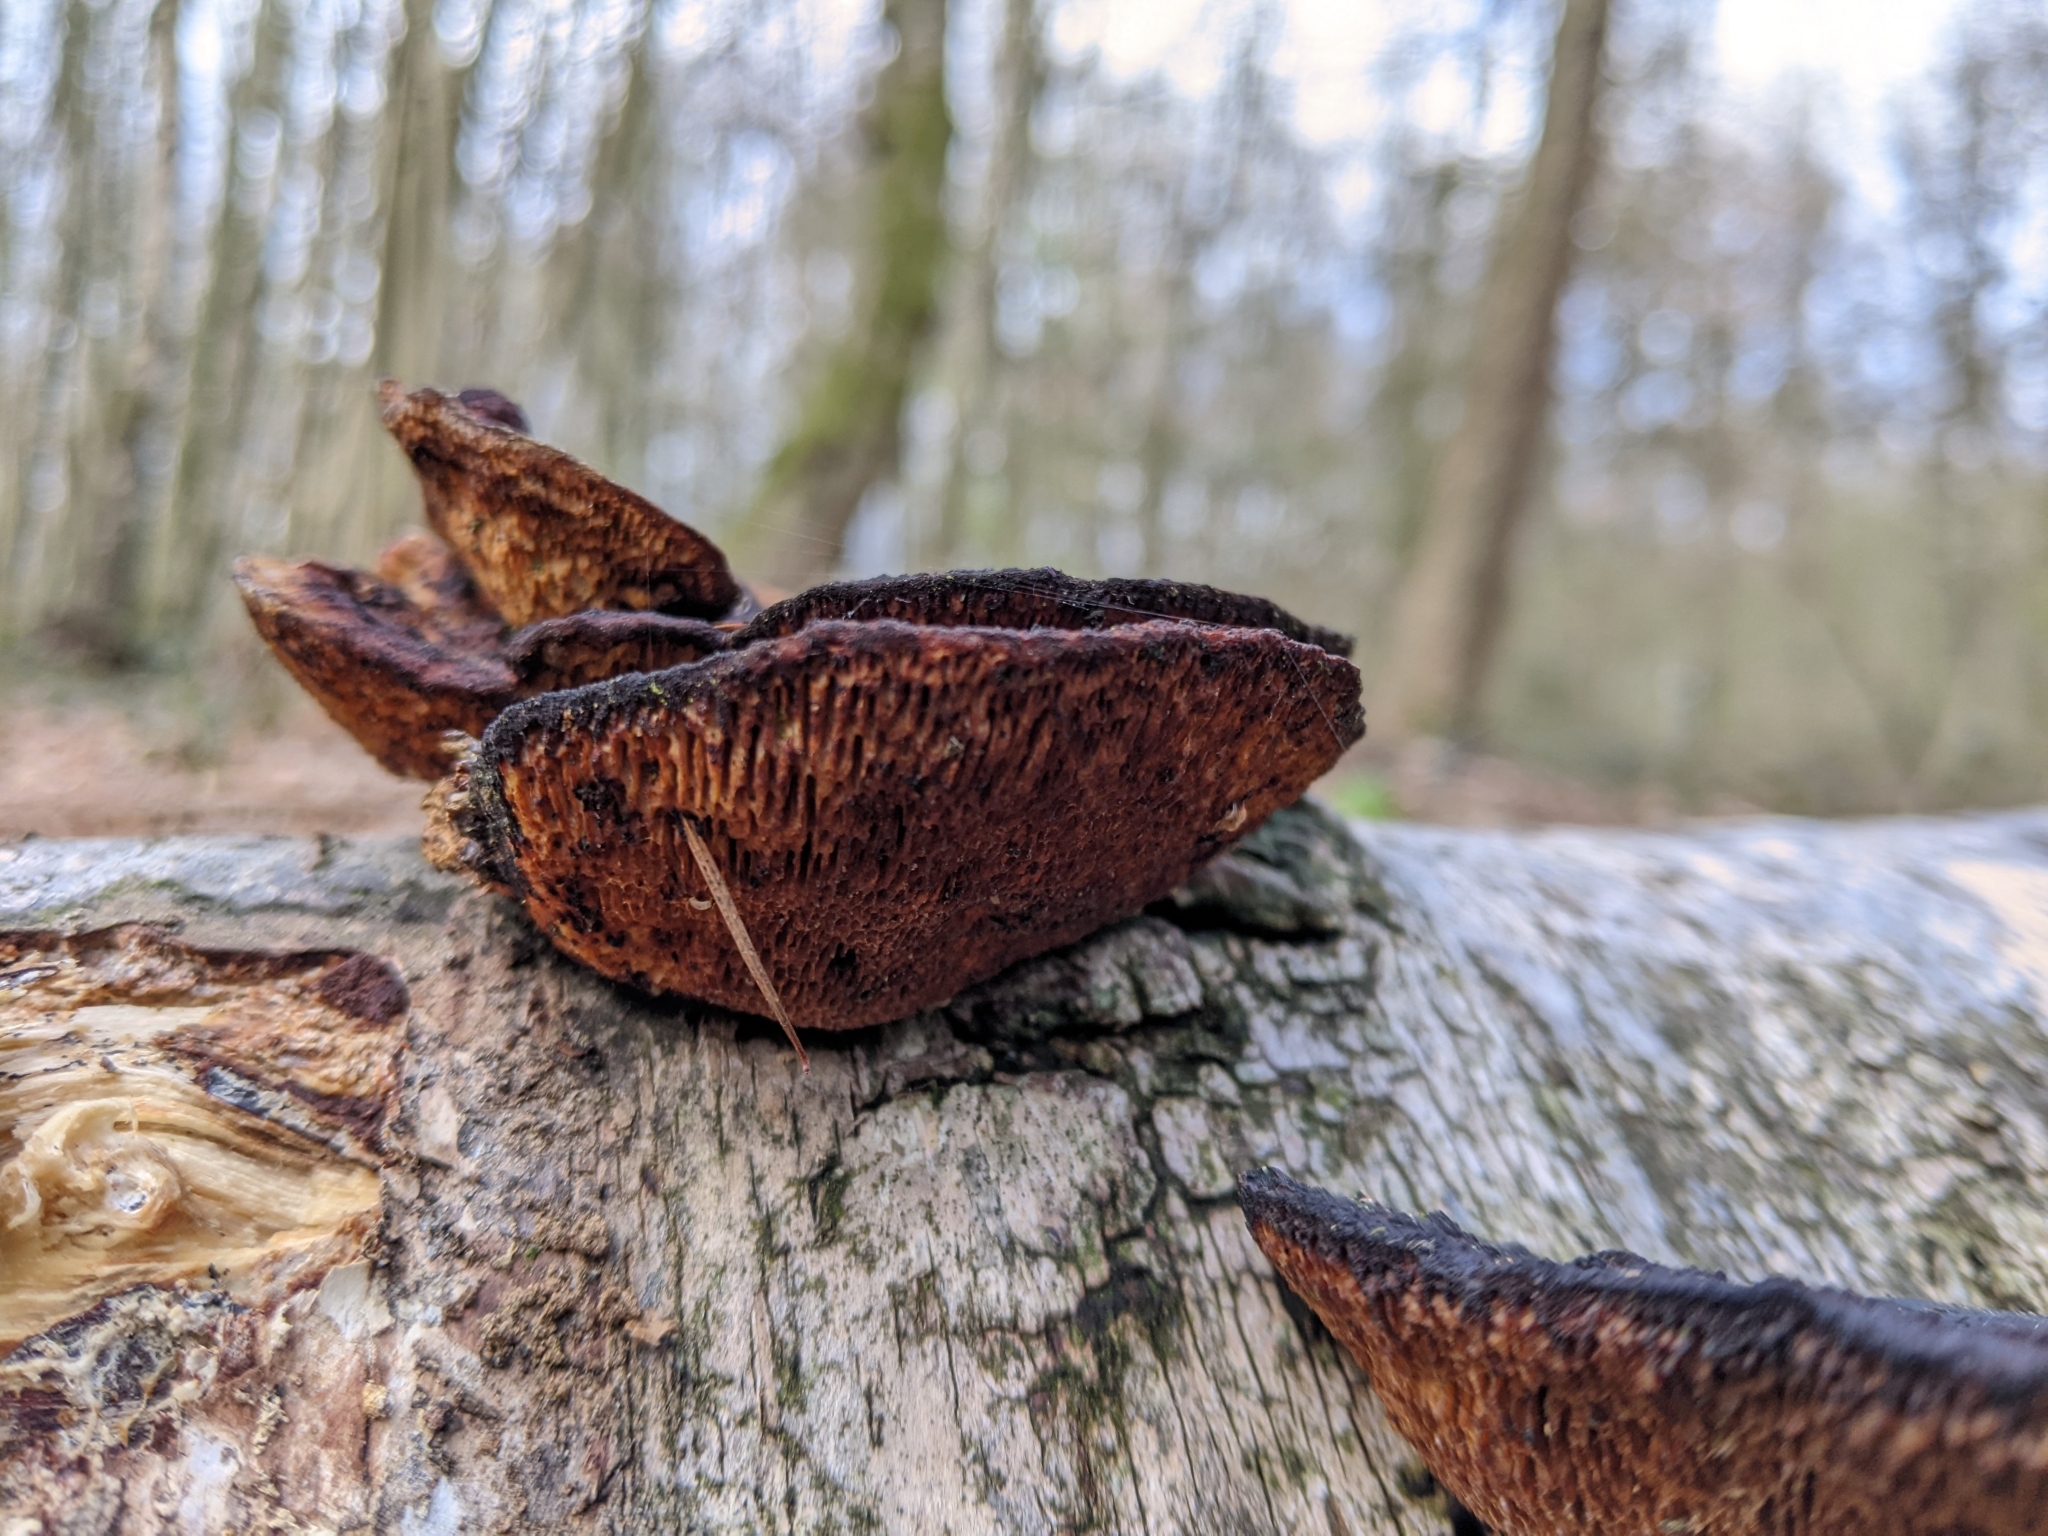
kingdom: Fungi
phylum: Basidiomycota
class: Agaricomycetes
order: Polyporales
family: Polyporaceae
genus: Daedaleopsis
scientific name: Daedaleopsis confragosa
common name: Blushing bracket
